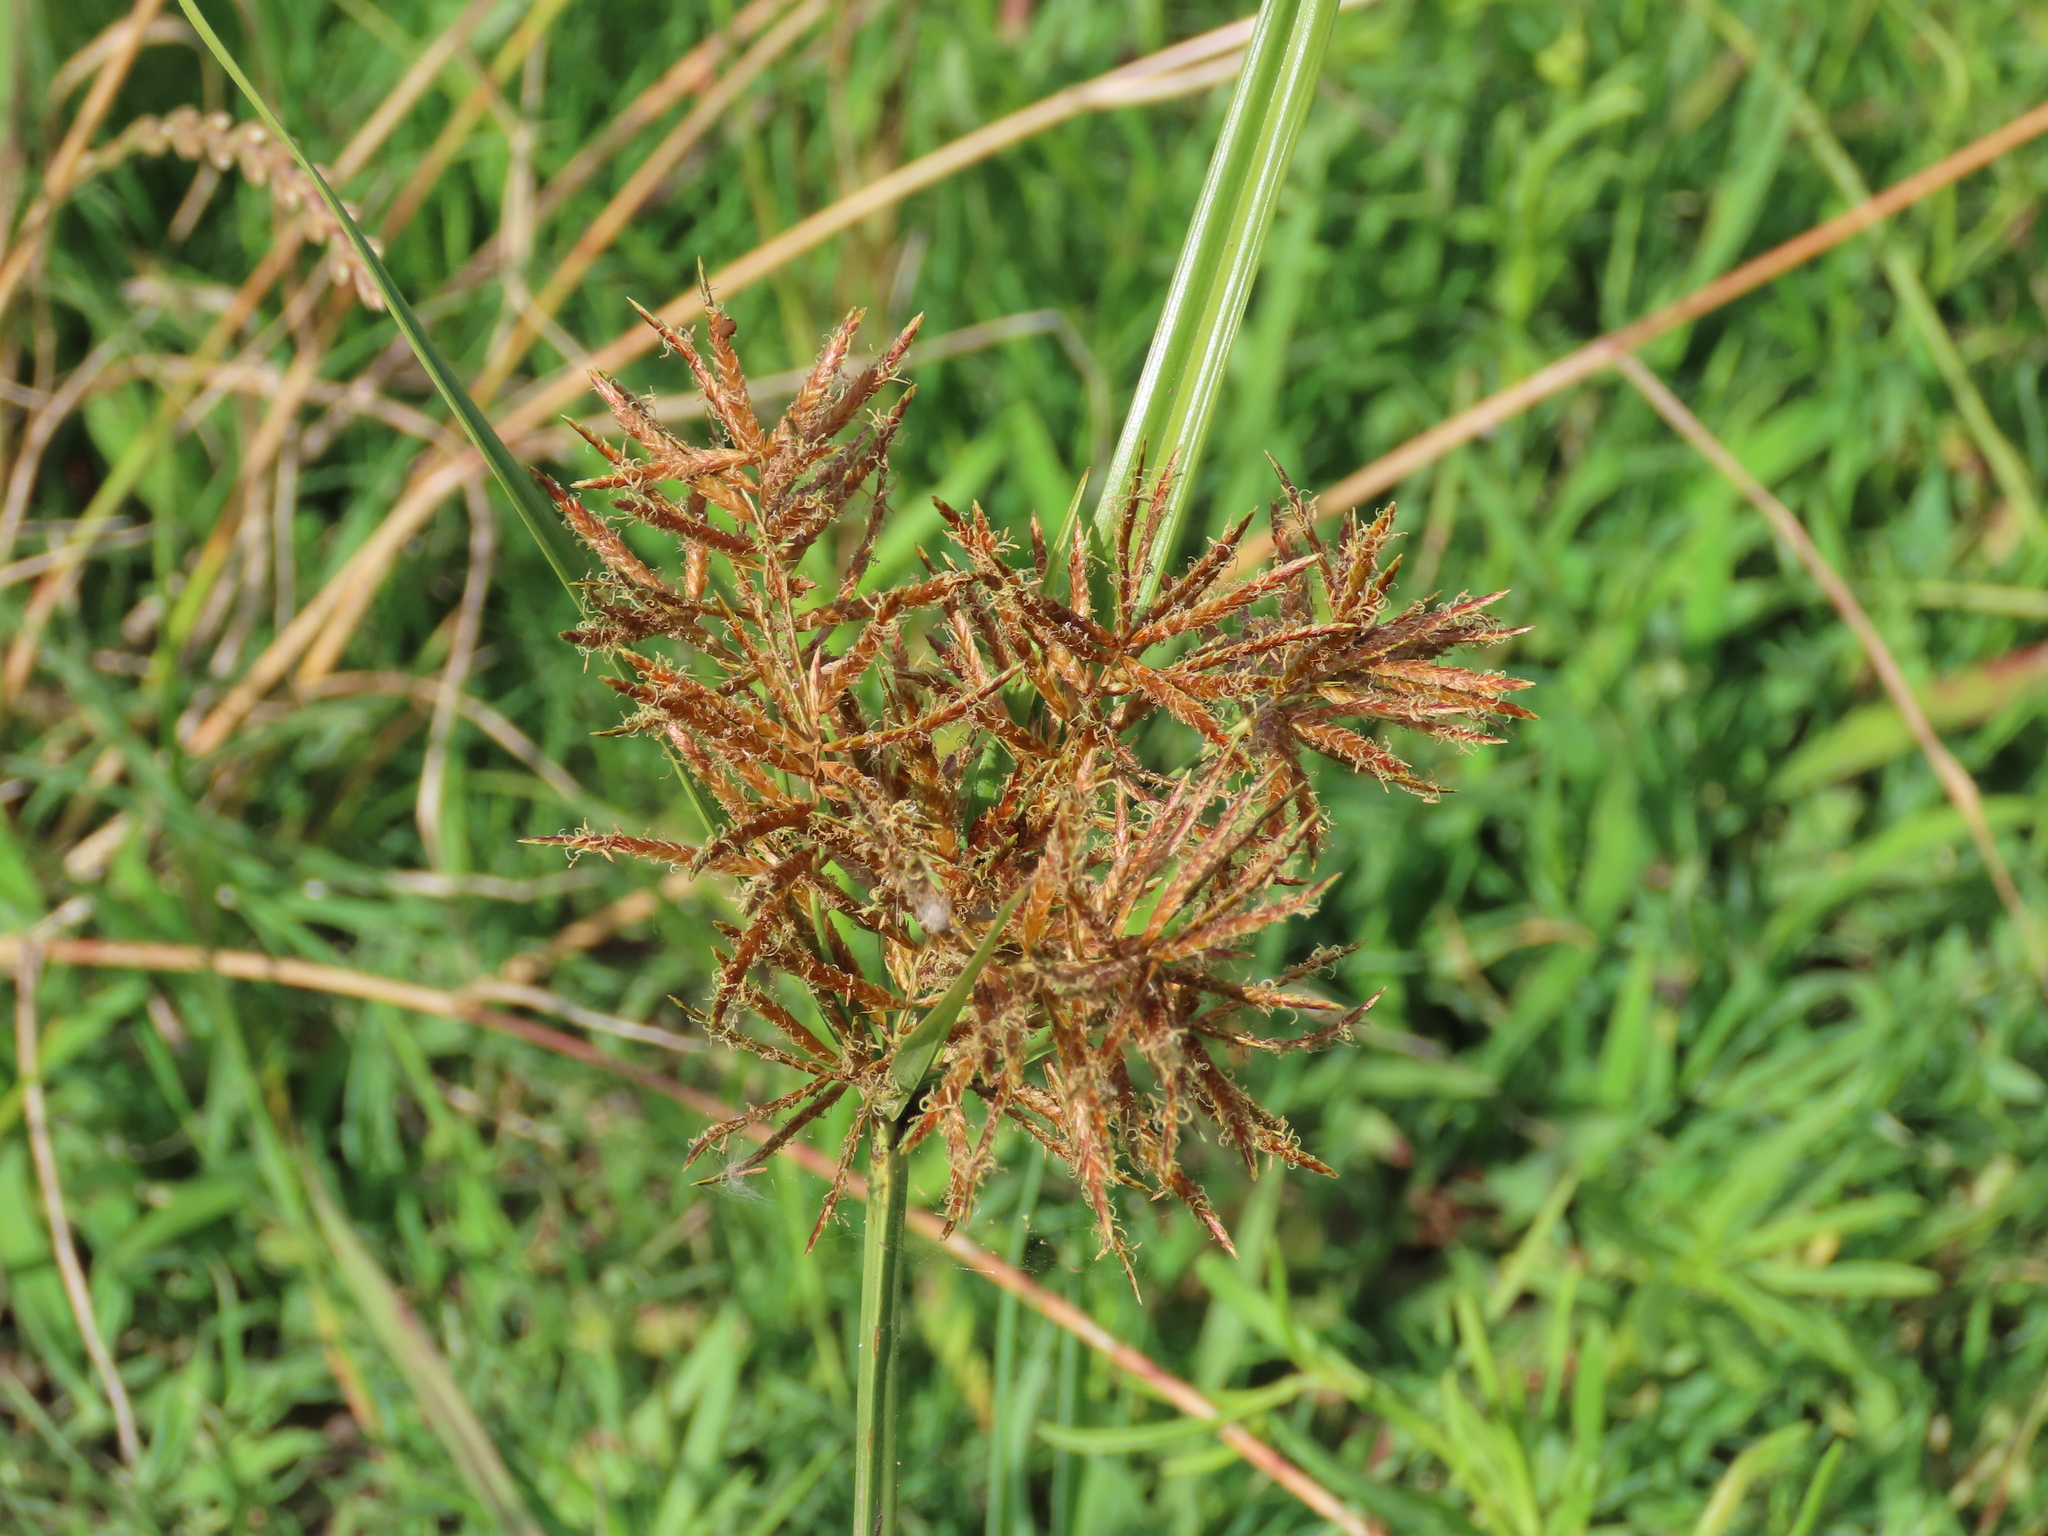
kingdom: Plantae
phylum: Tracheophyta
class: Liliopsida
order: Poales
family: Cyperaceae
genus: Cyperus
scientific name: Cyperus corymbosus
